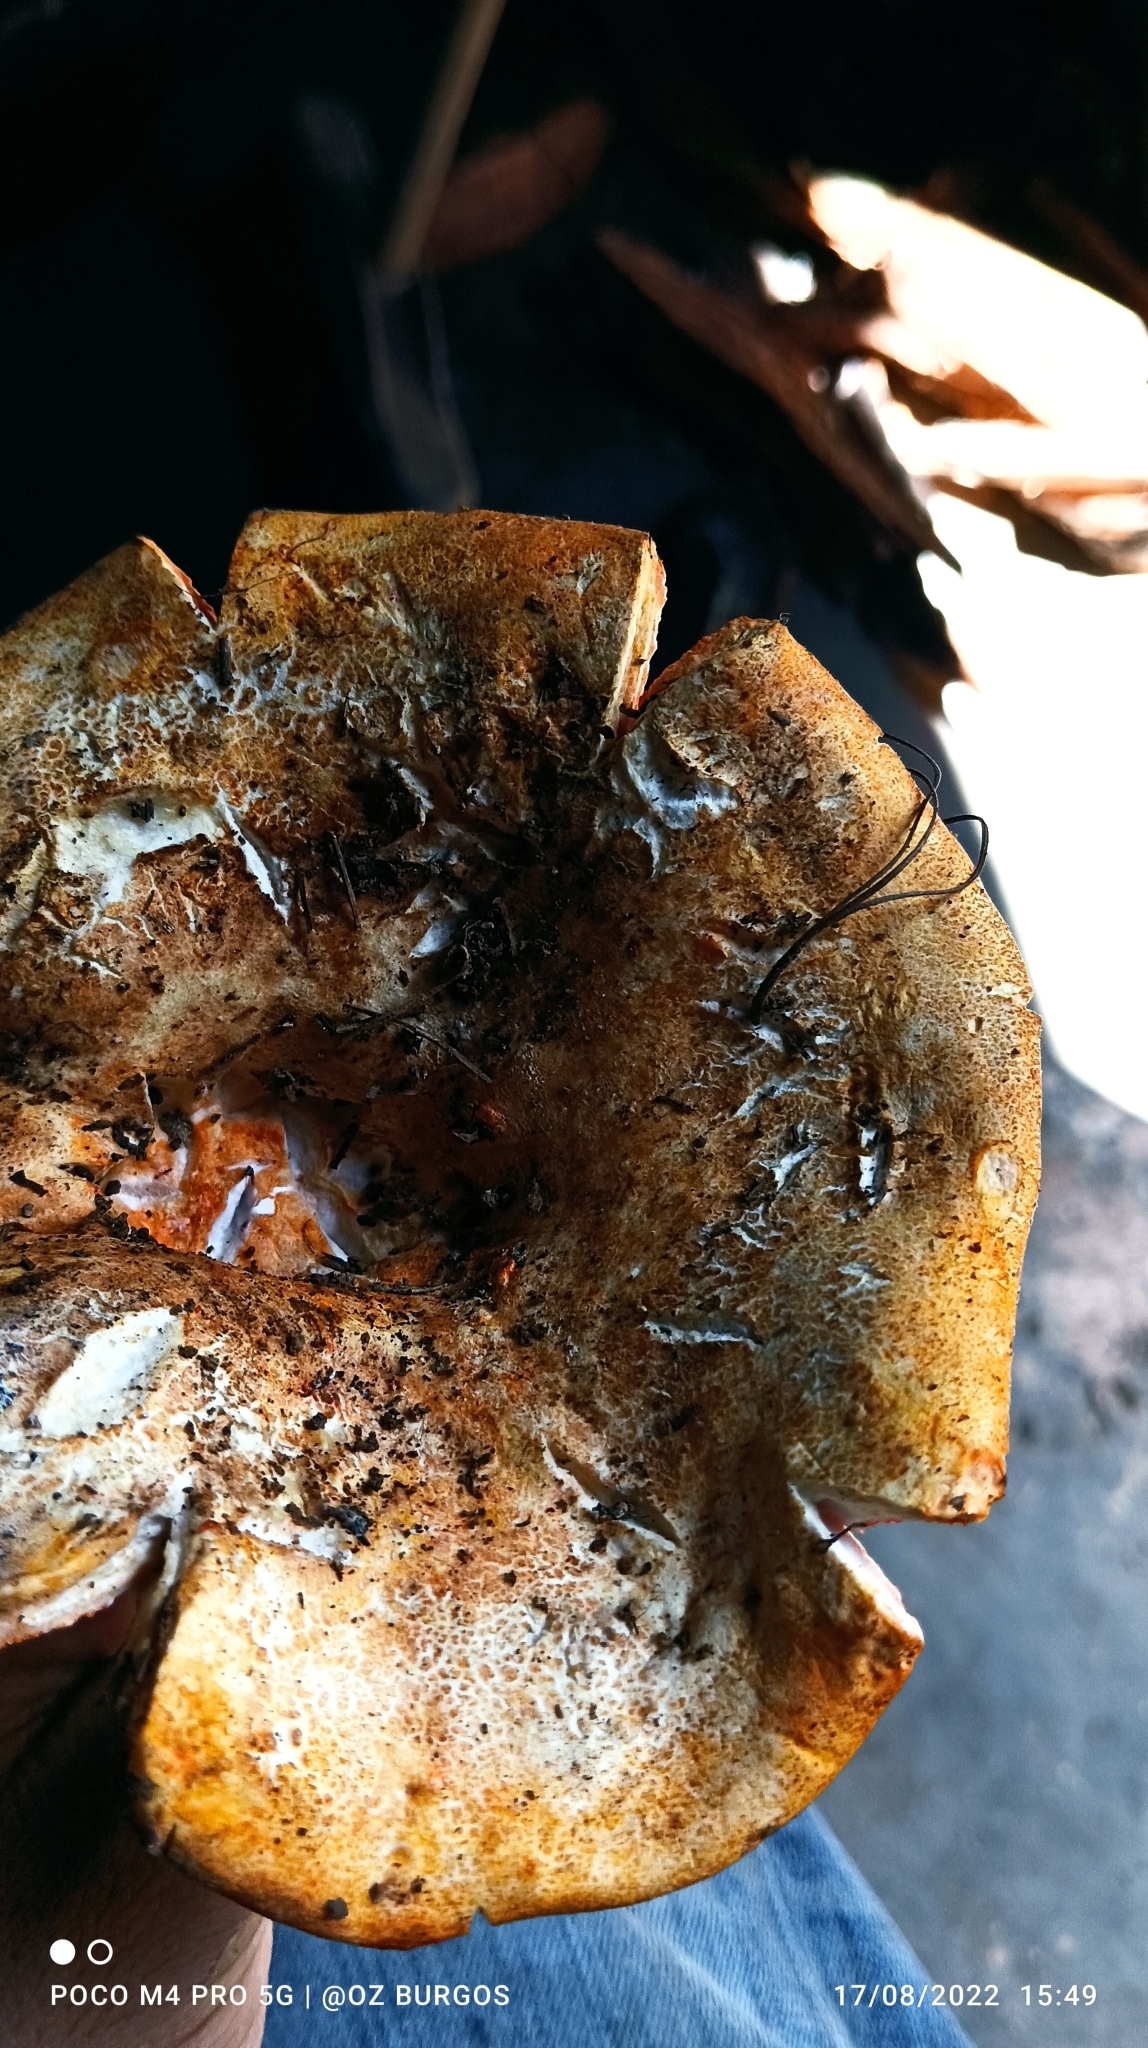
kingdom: Fungi
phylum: Ascomycota
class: Sordariomycetes
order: Hypocreales
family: Hypocreaceae
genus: Hypomyces
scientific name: Hypomyces lactifluorum
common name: Lobster mushroom
